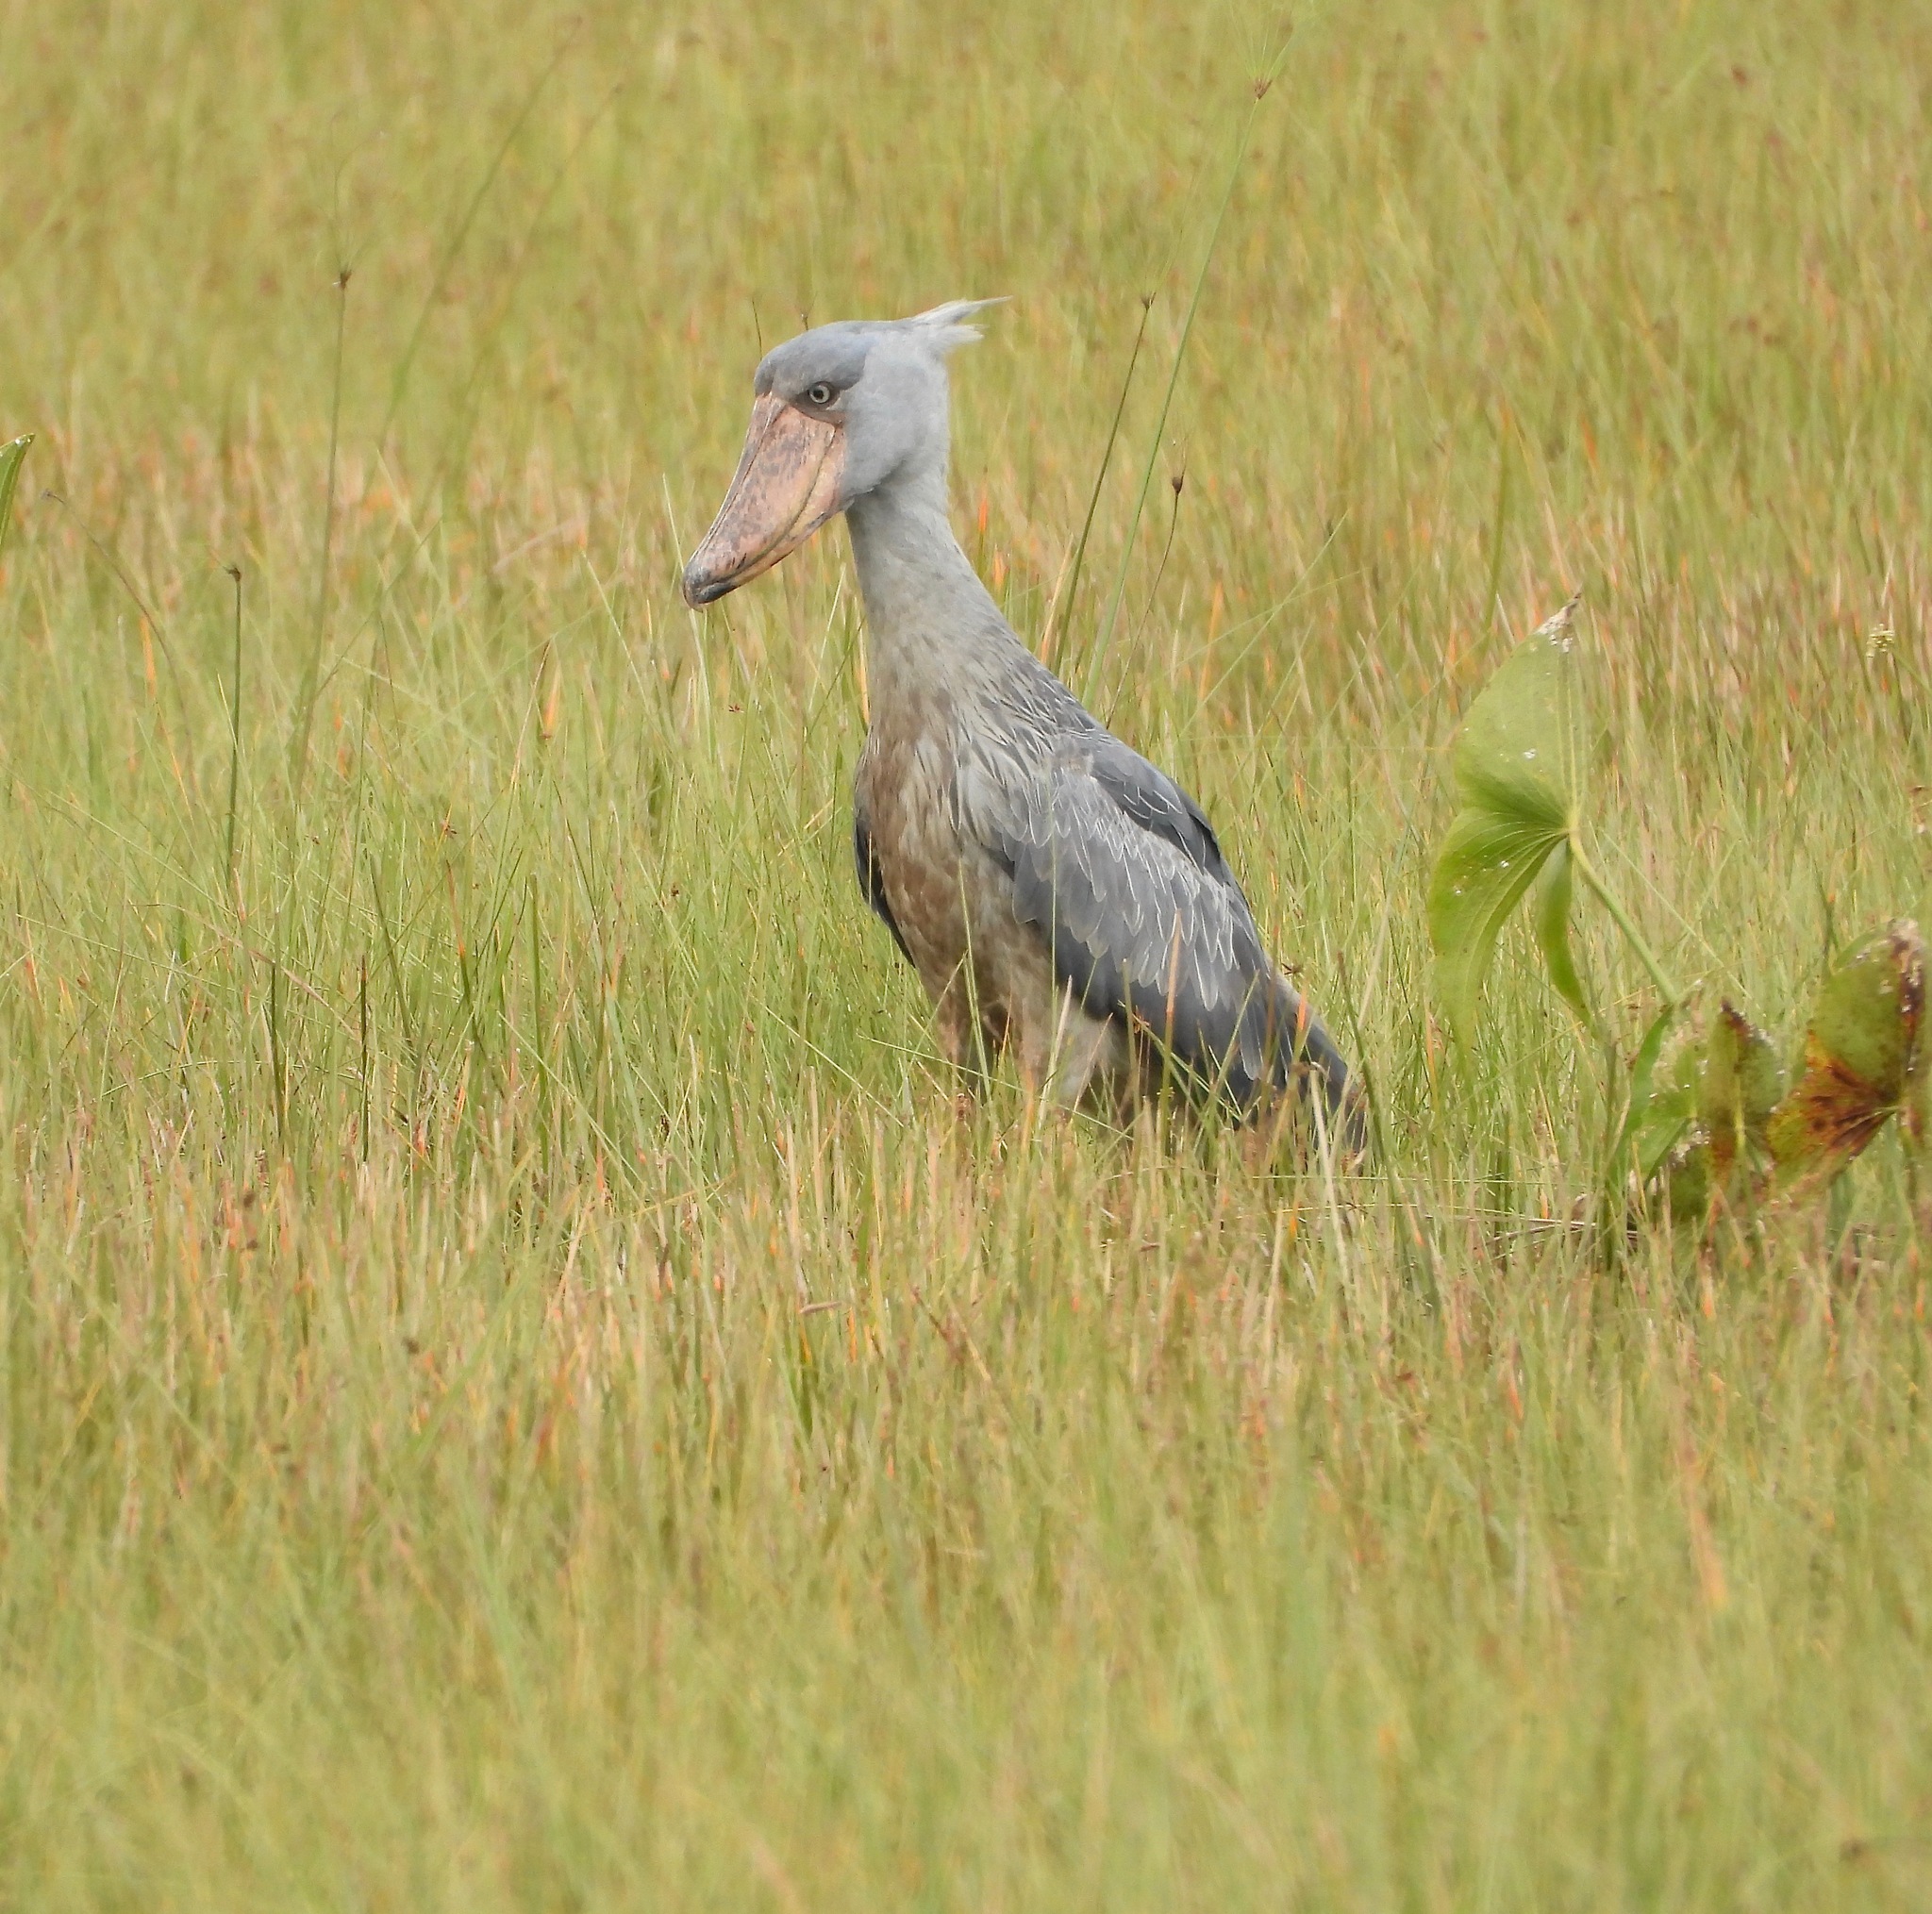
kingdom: Animalia
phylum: Chordata
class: Aves
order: Pelecaniformes
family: Balaenicipitidae
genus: Balaeniceps
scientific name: Balaeniceps rex
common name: Shoebill
